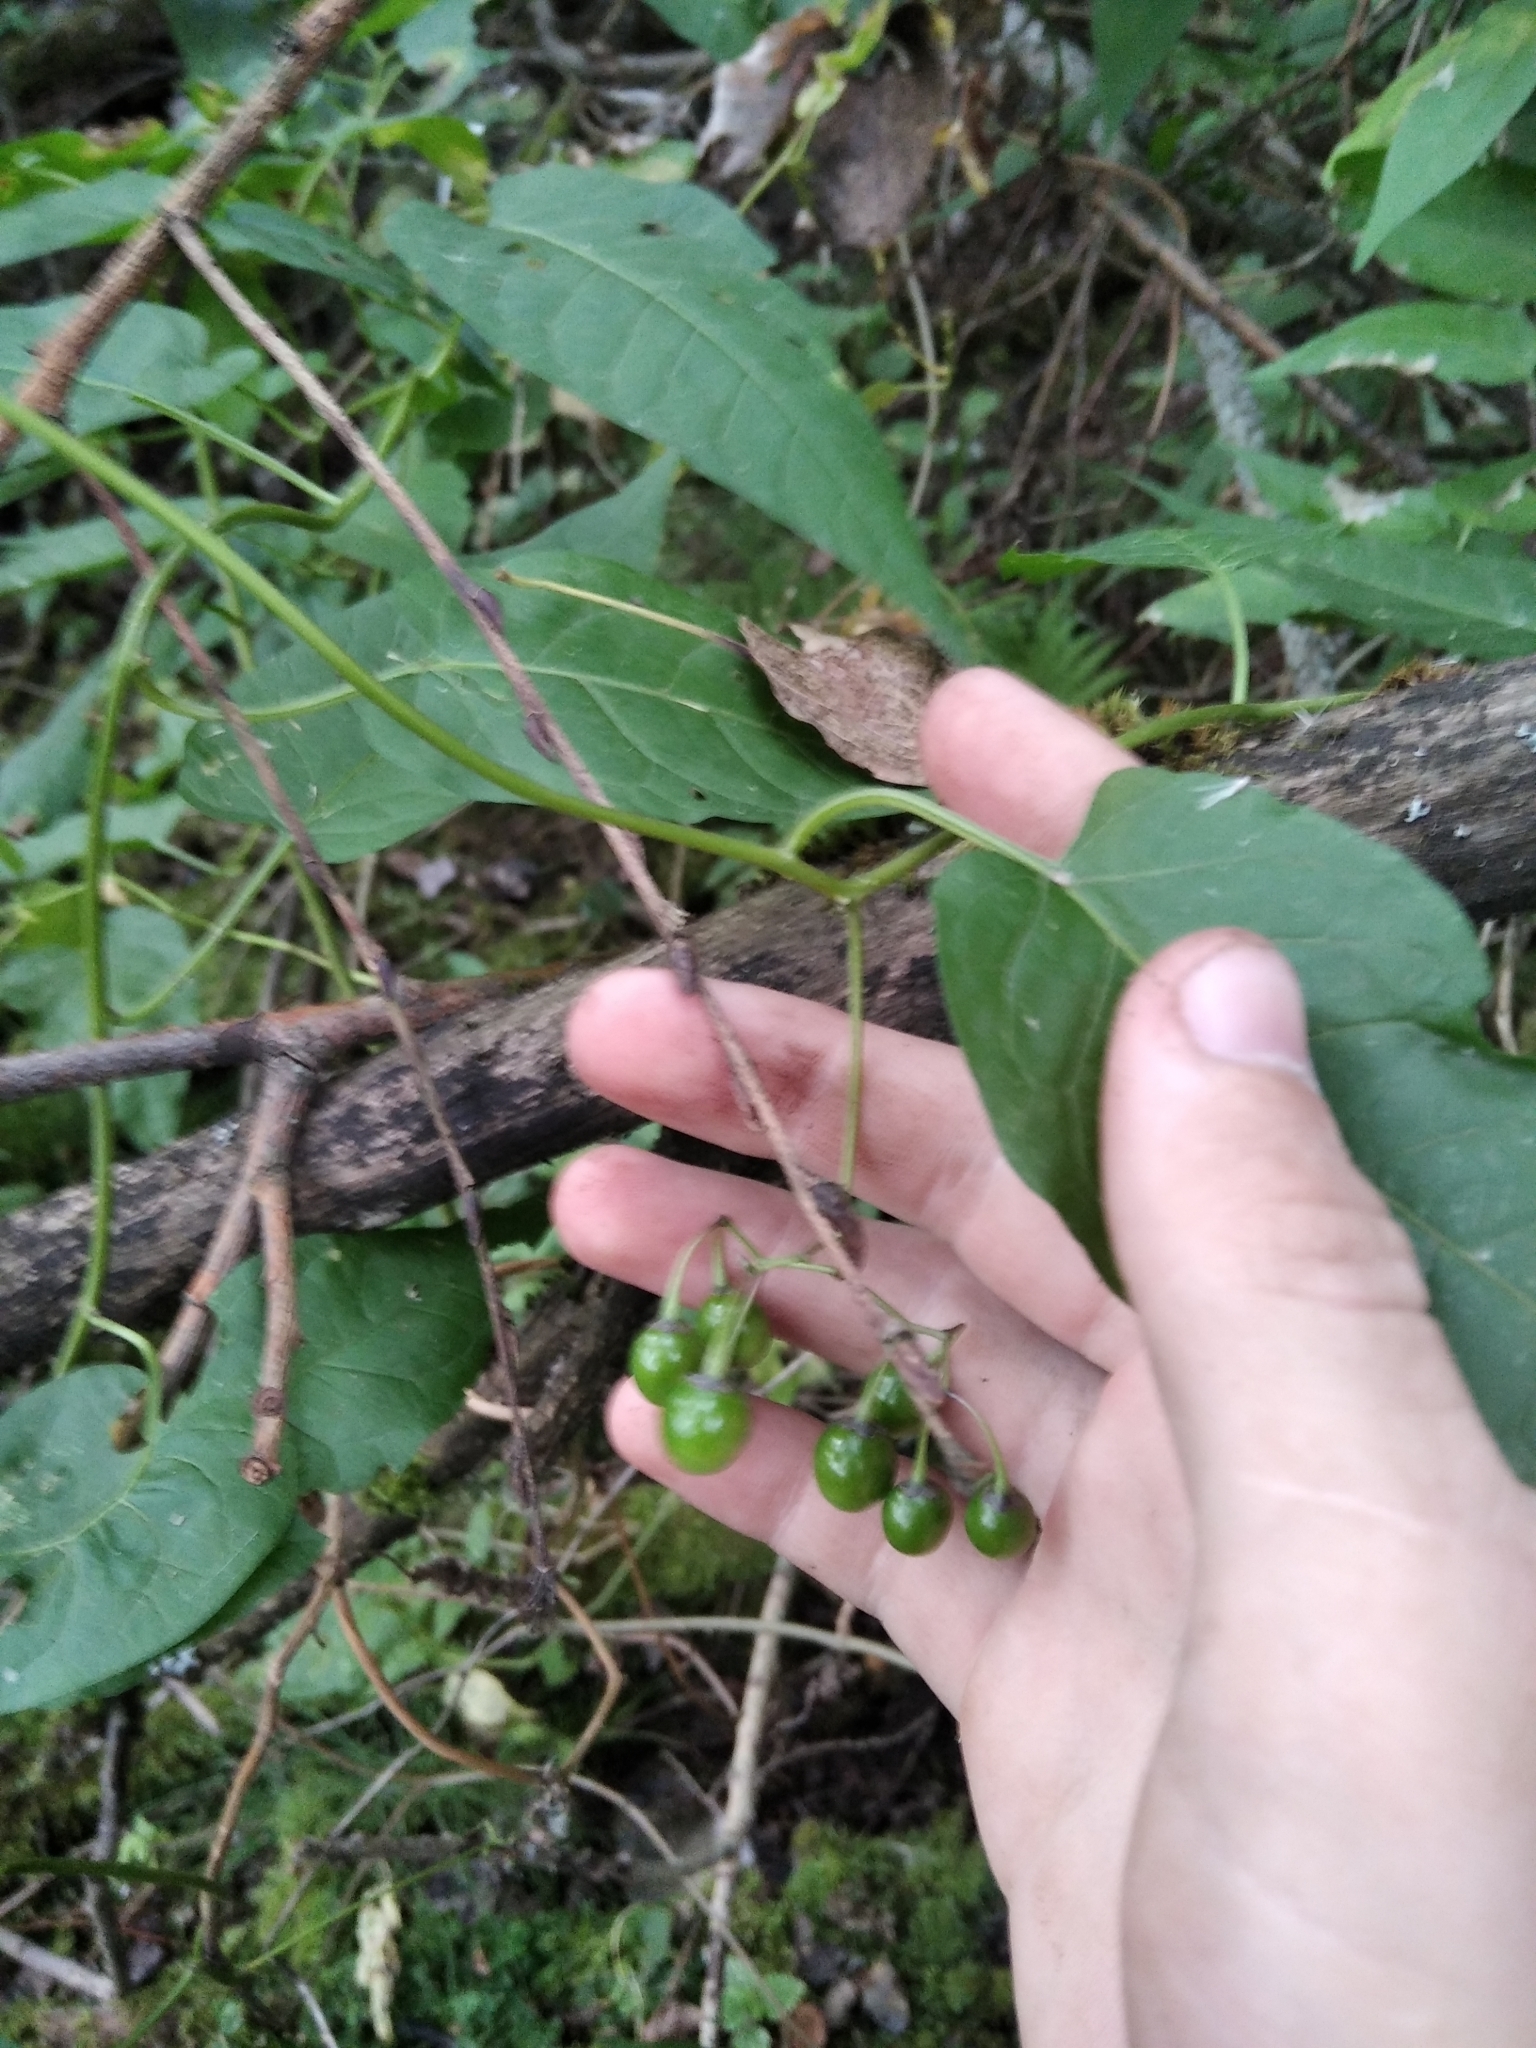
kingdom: Plantae
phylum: Tracheophyta
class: Magnoliopsida
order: Solanales
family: Solanaceae
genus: Solanum
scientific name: Solanum dulcamara
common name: Climbing nightshade
